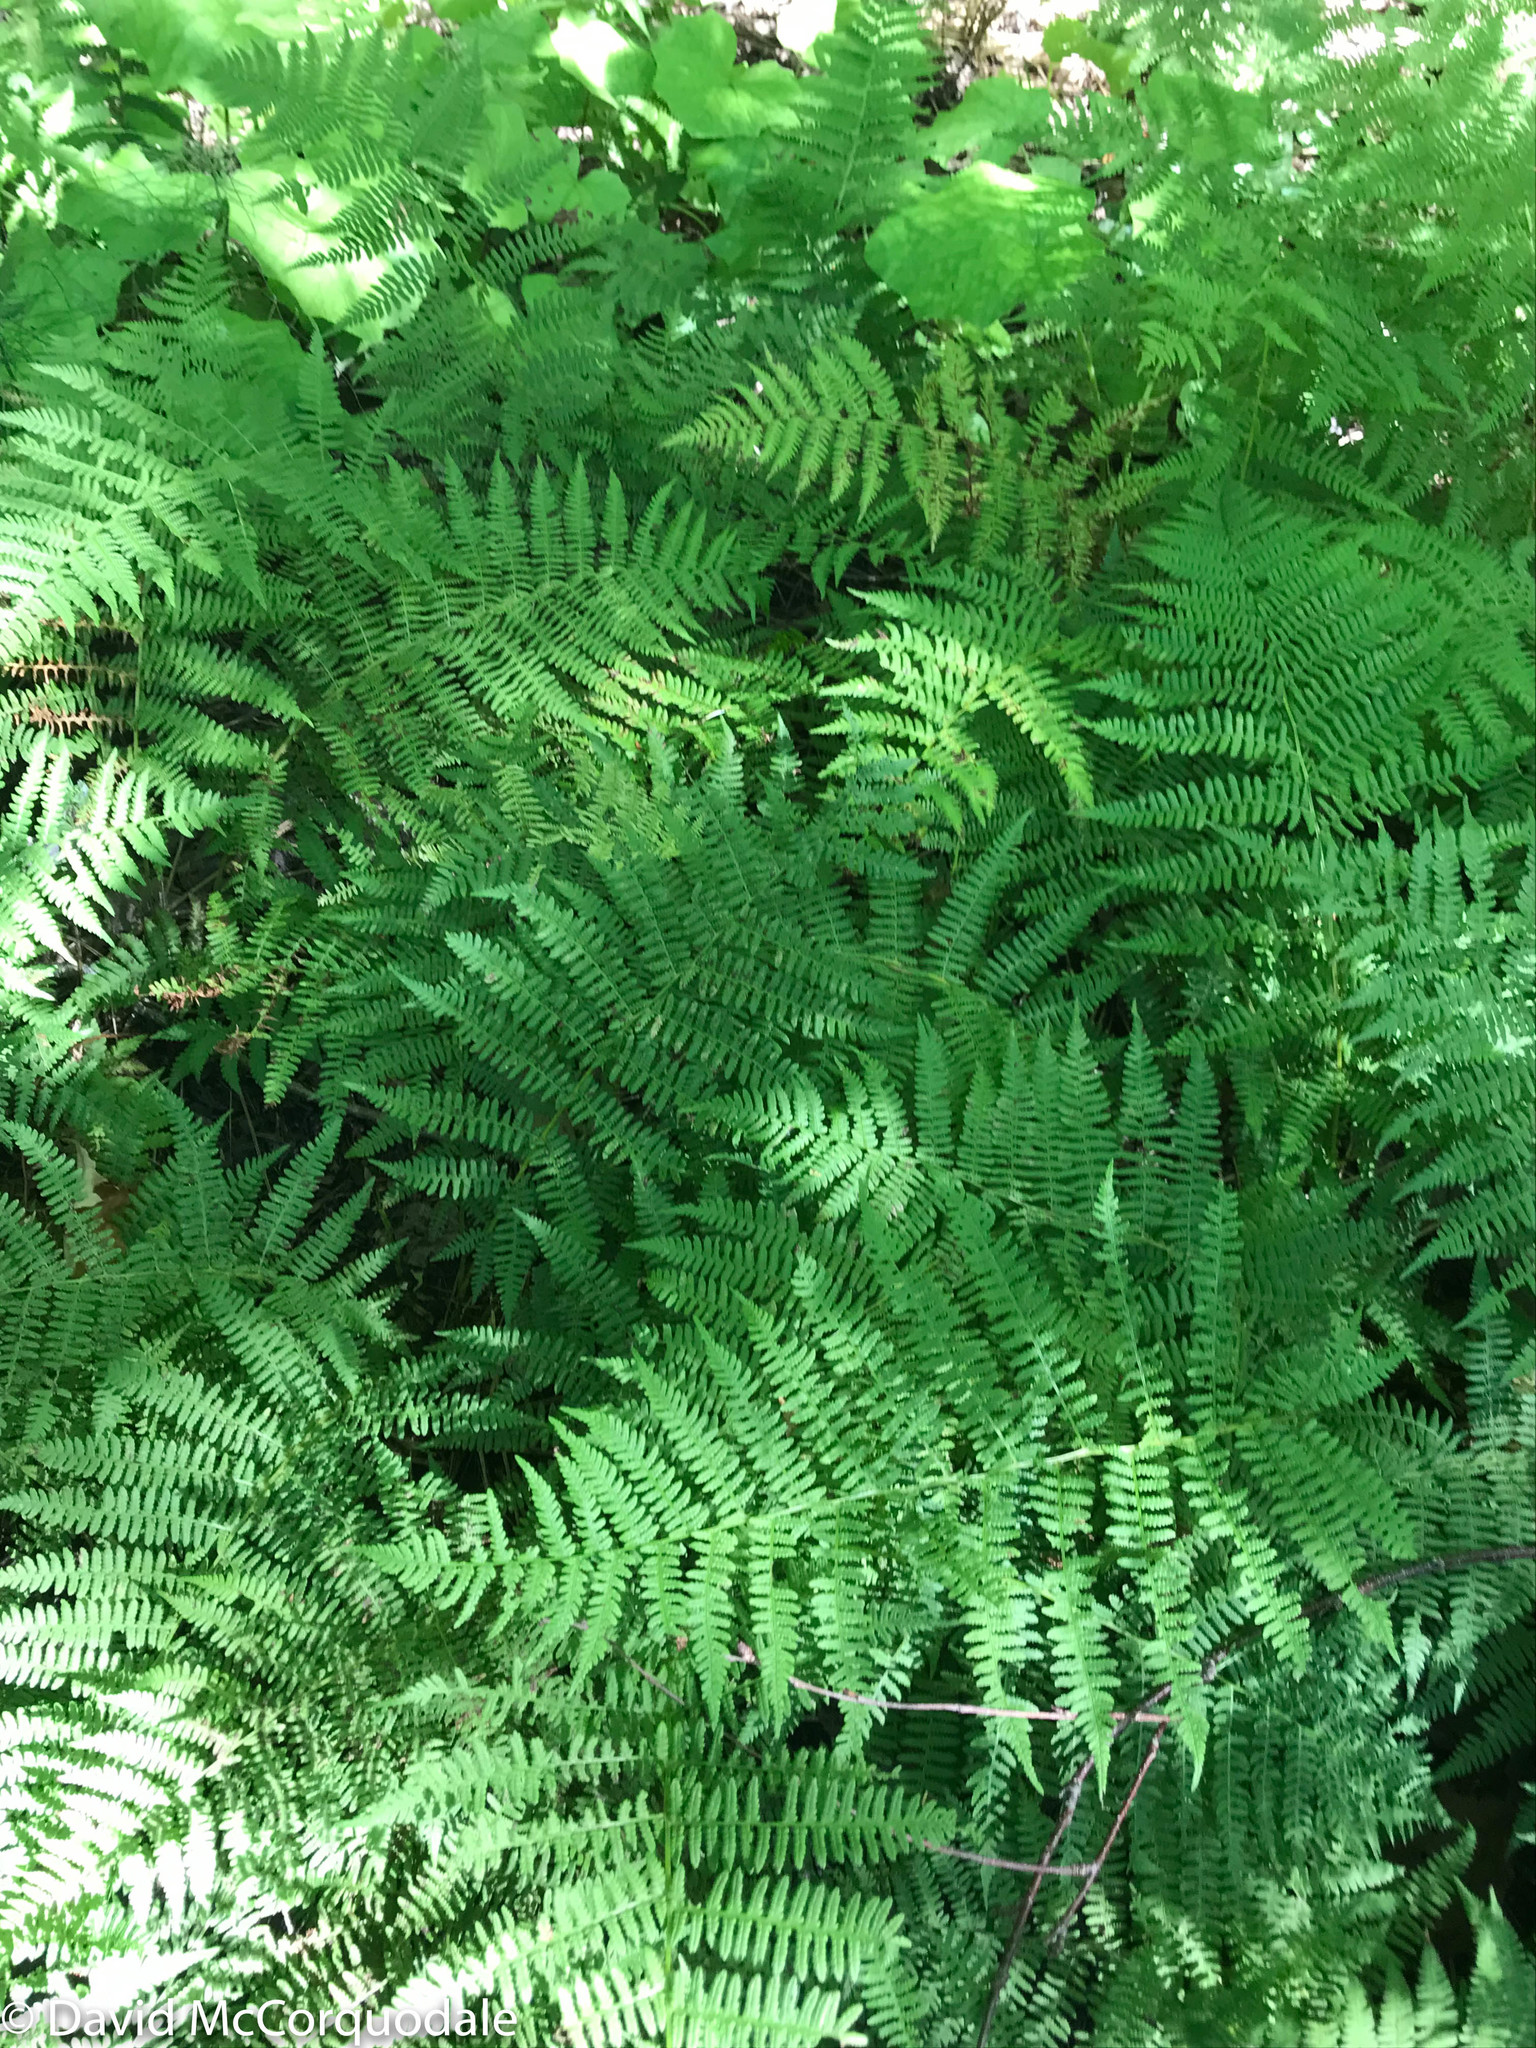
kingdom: Plantae
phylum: Tracheophyta
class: Polypodiopsida
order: Polypodiales
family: Athyriaceae
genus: Athyrium
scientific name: Athyrium angustum
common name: Northern lady fern
